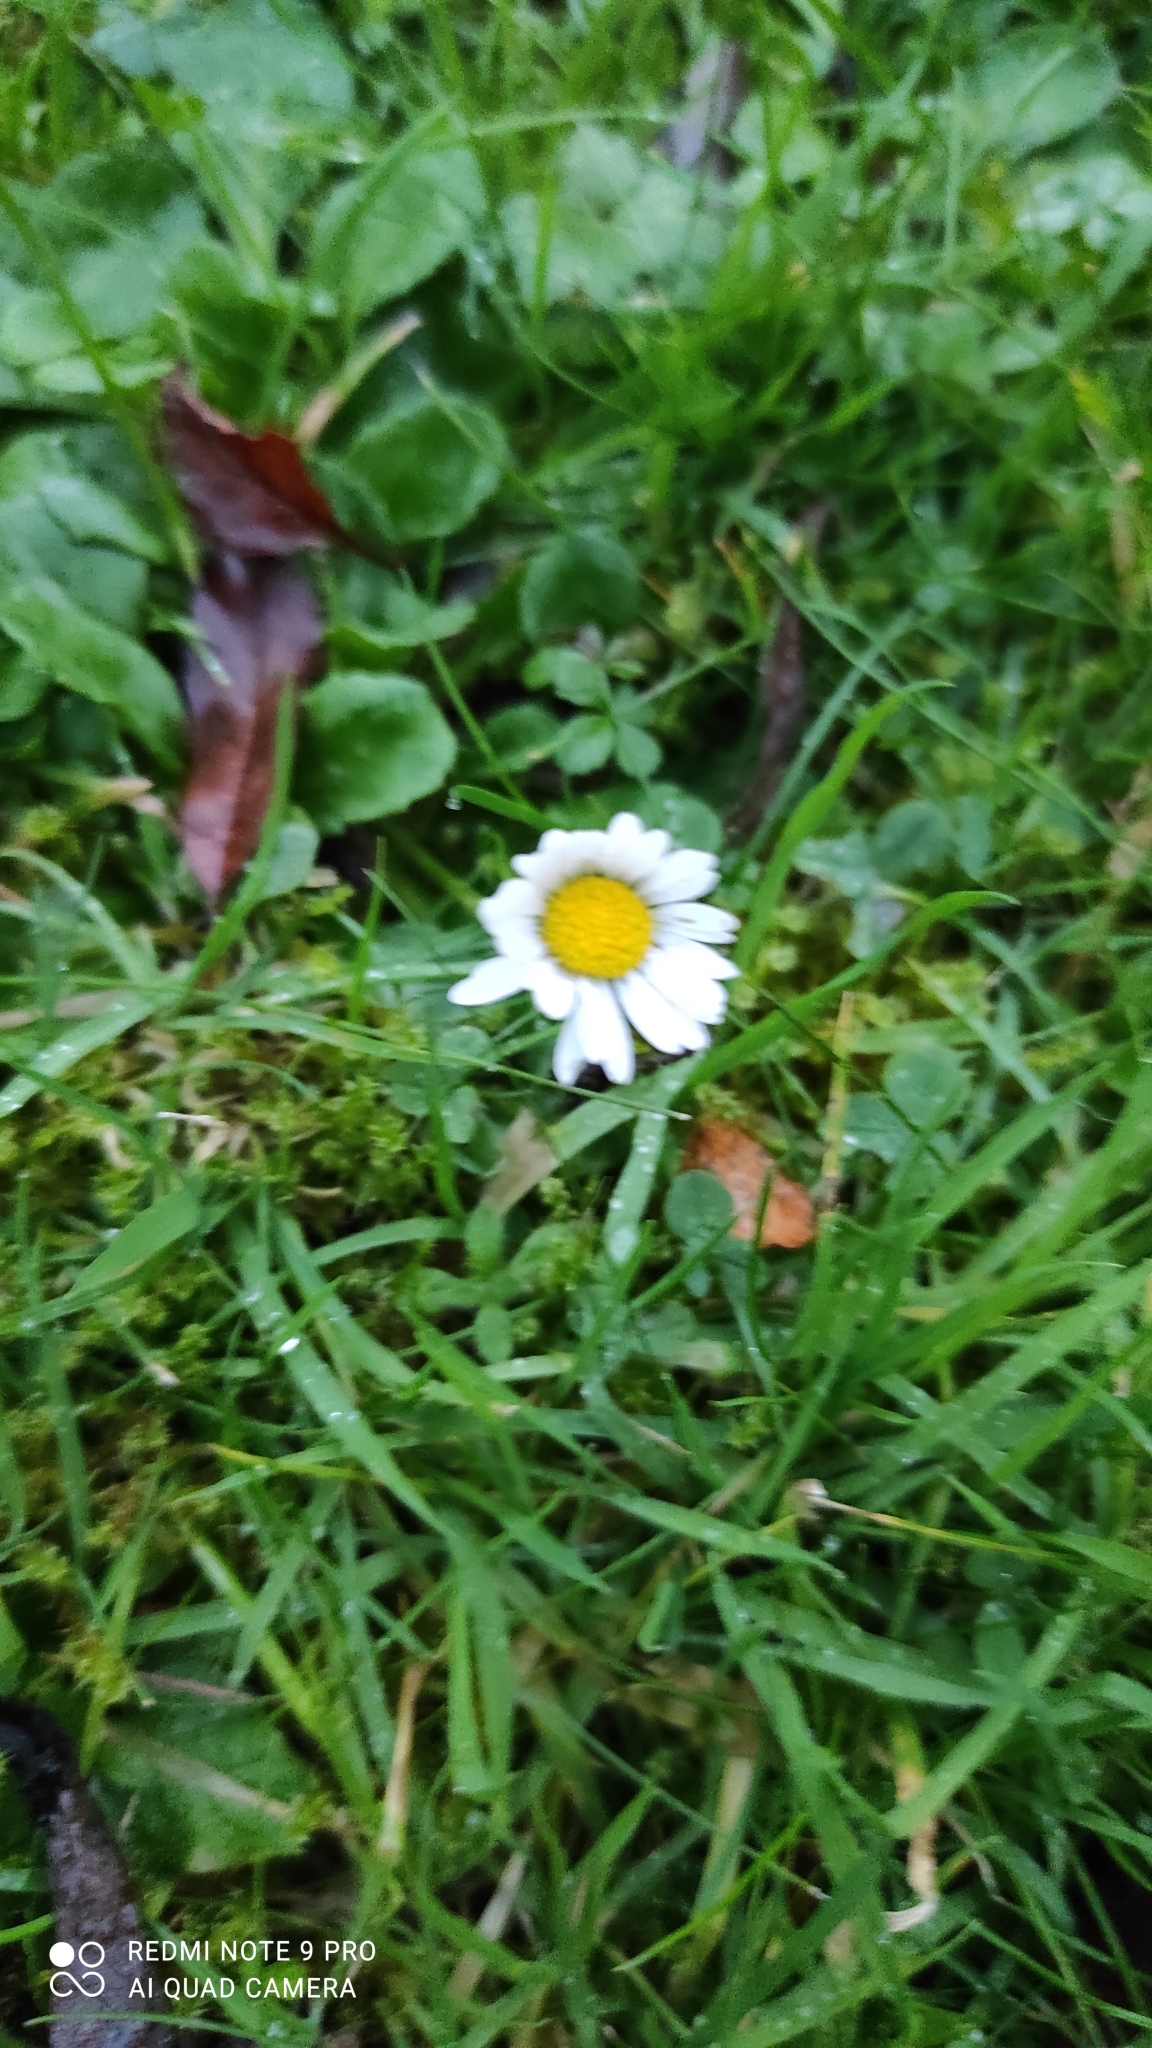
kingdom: Plantae
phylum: Tracheophyta
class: Magnoliopsida
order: Asterales
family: Asteraceae
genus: Bellis
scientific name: Bellis perennis
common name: Lawndaisy
